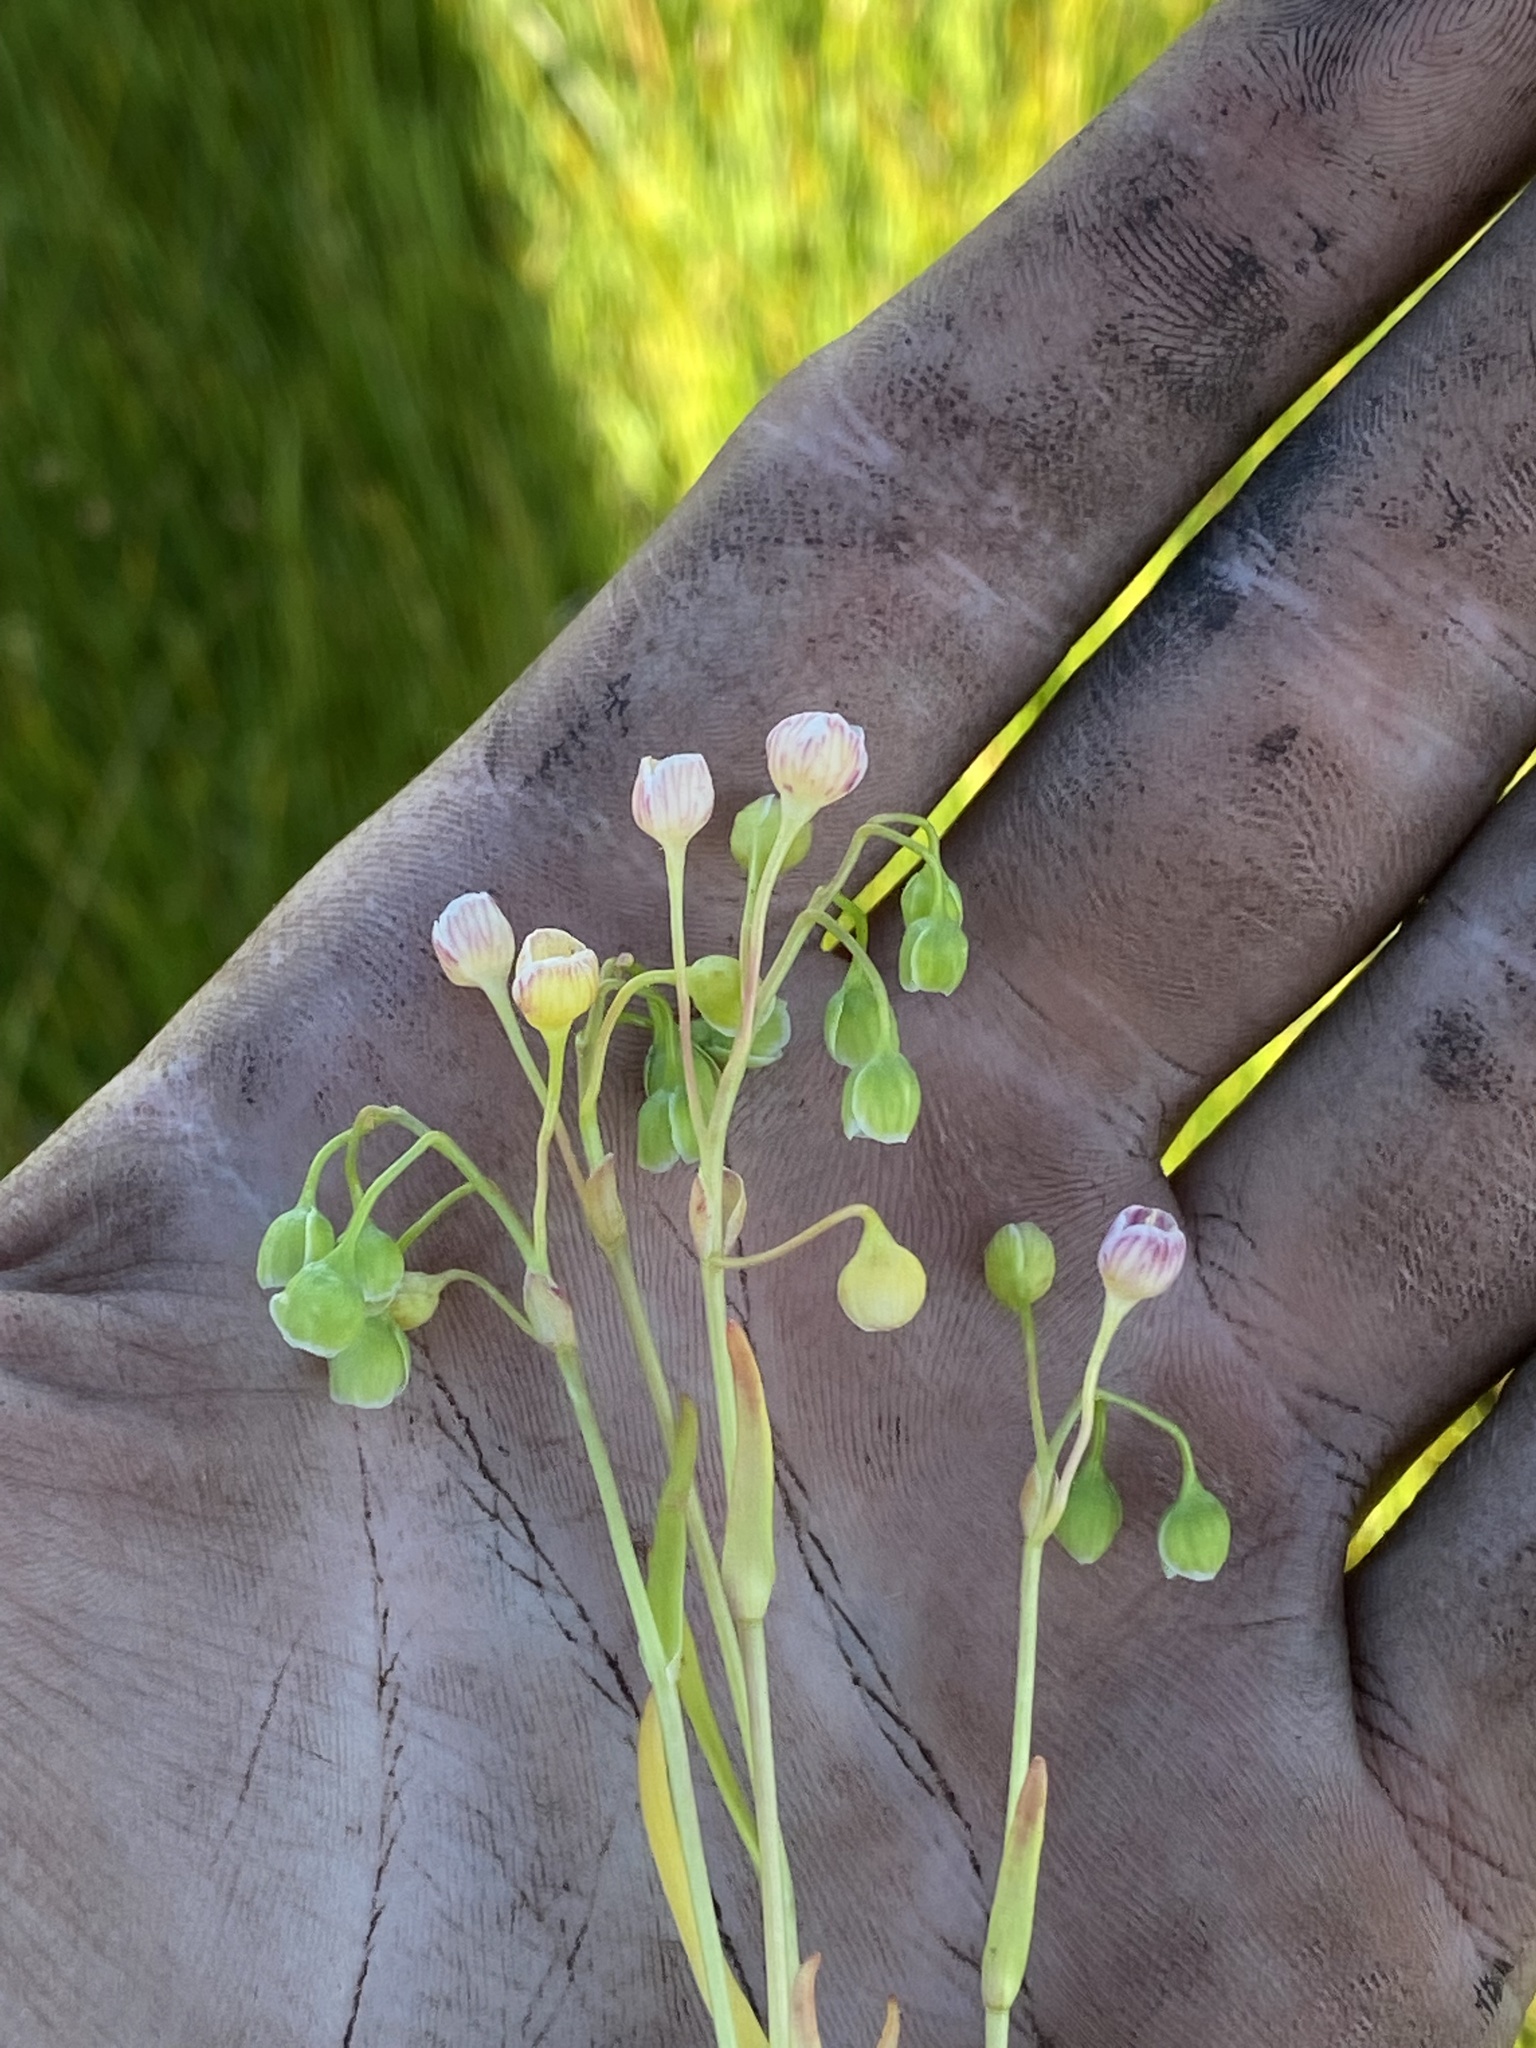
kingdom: Plantae
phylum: Tracheophyta
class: Magnoliopsida
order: Caryophyllales
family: Montiaceae
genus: Montia
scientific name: Montia linearis
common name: Narrow-leaf montia
